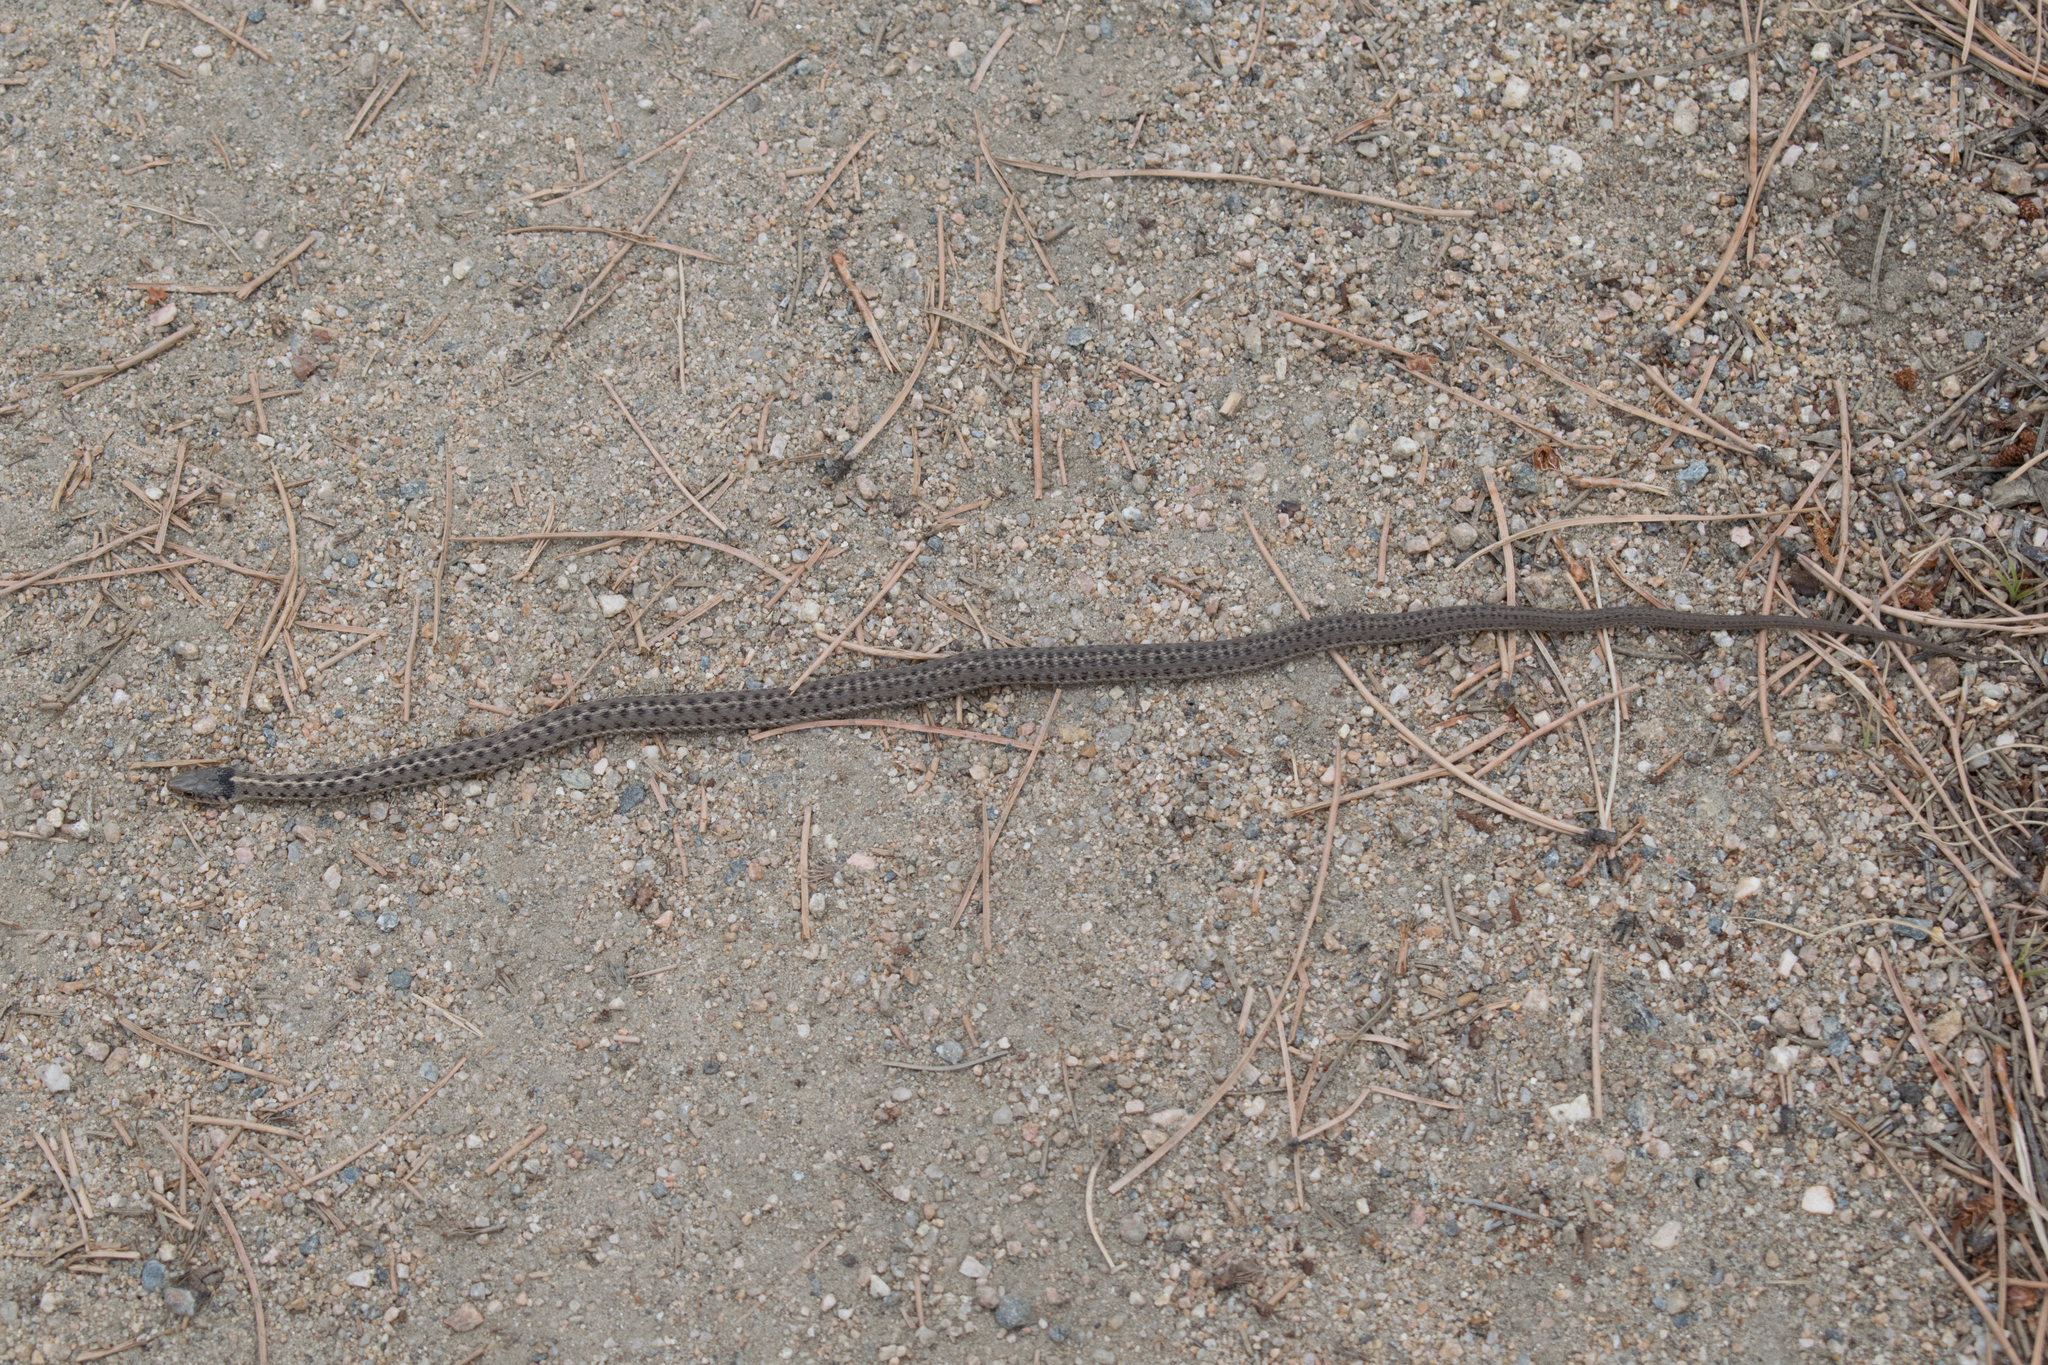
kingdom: Animalia
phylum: Chordata
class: Squamata
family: Colubridae
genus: Thamnophis
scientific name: Thamnophis elegans
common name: Western terrestrial garter snake
